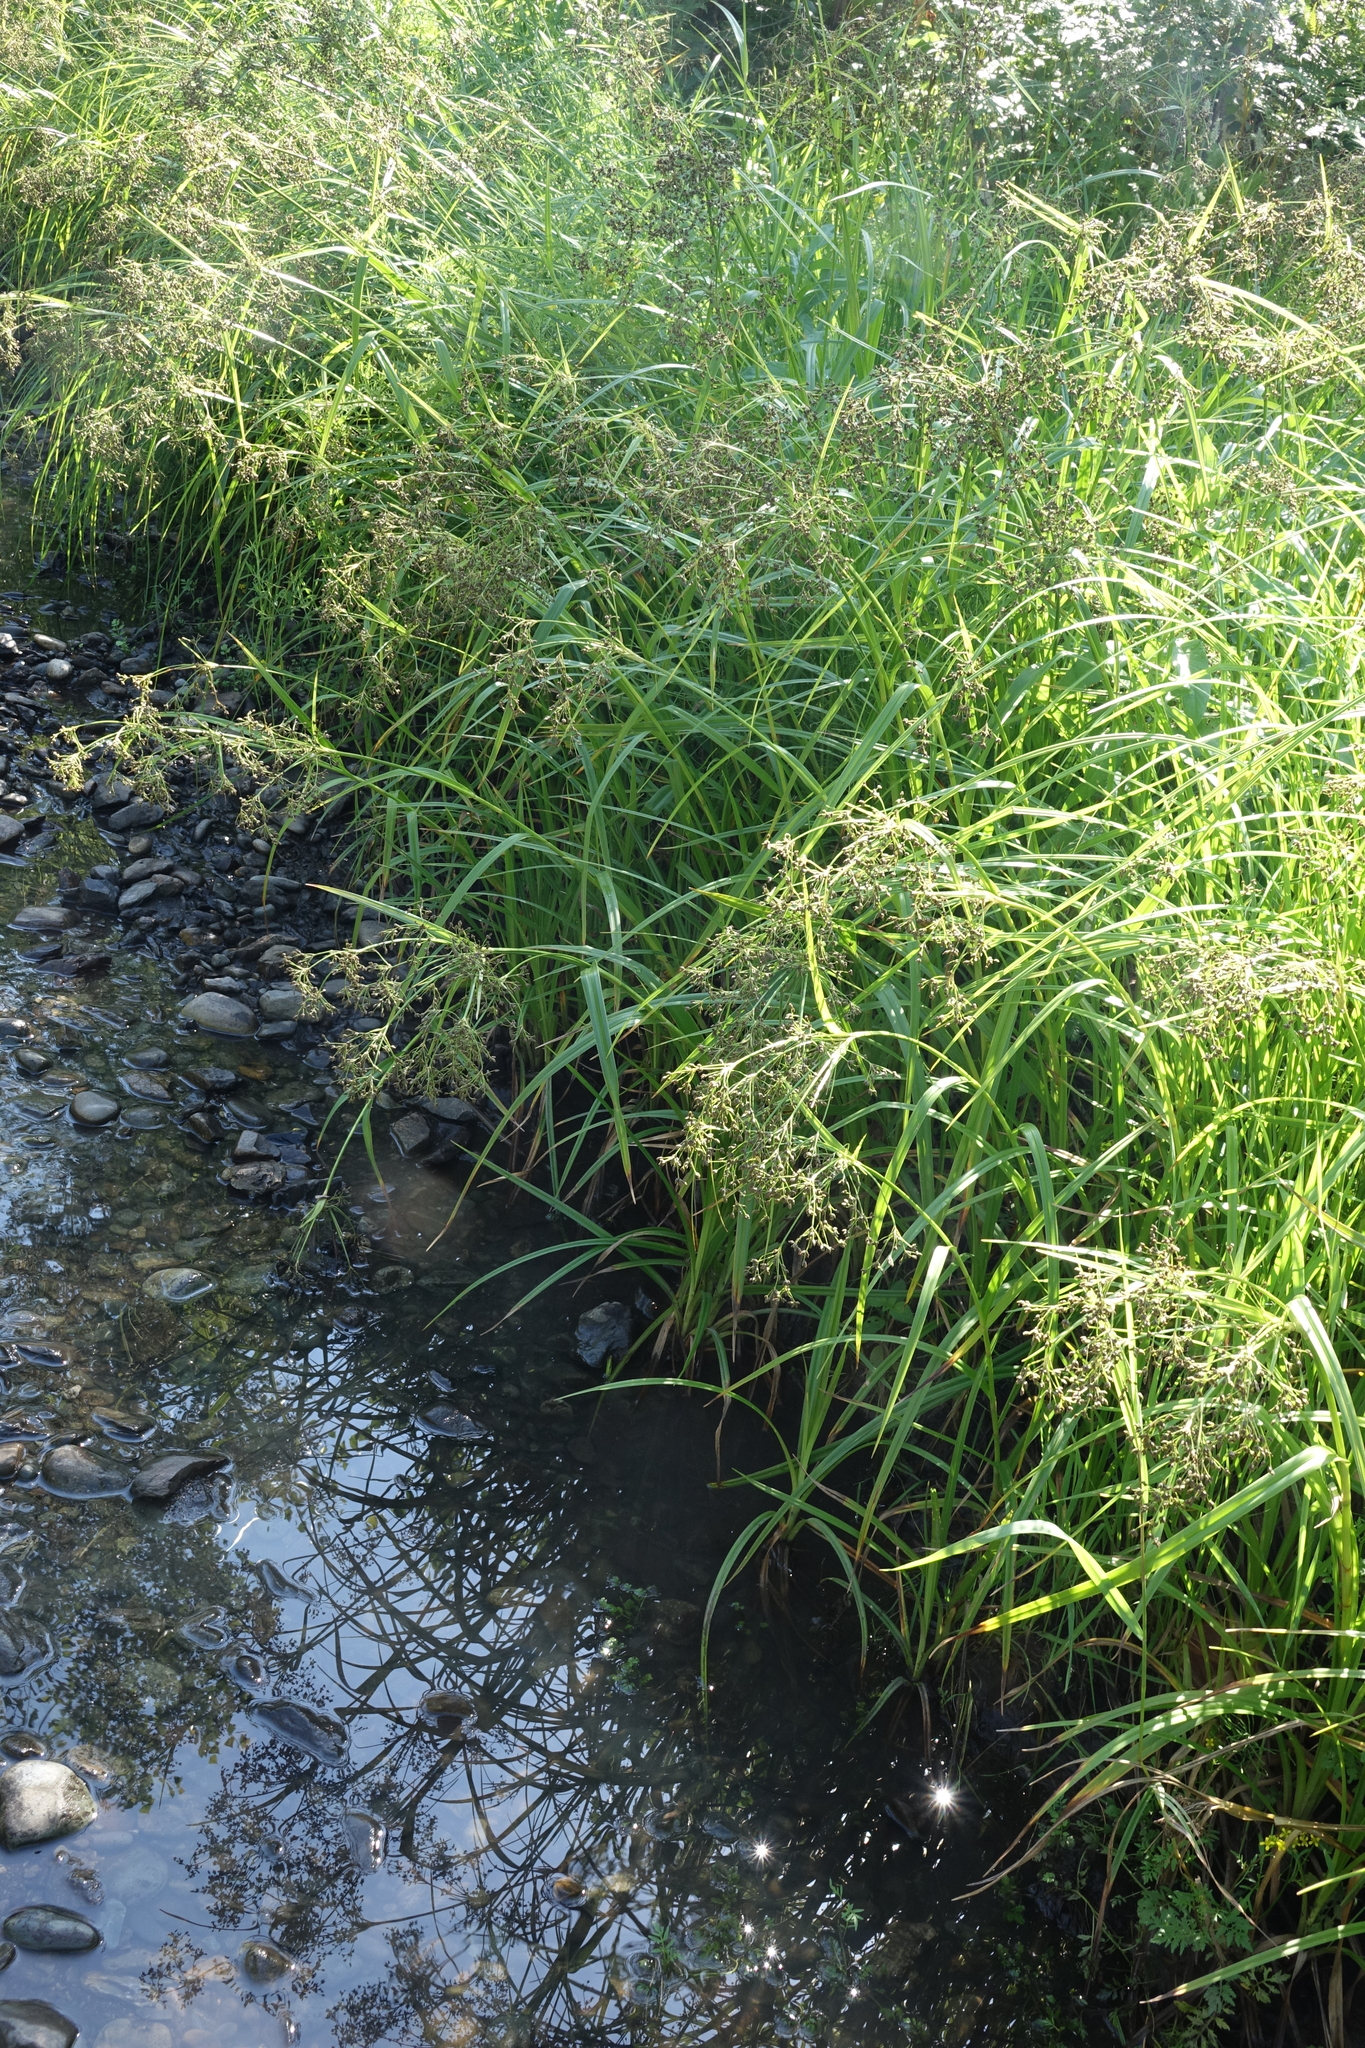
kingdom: Plantae
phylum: Tracheophyta
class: Liliopsida
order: Poales
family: Cyperaceae
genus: Scirpus
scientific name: Scirpus sylvaticus
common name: Wood club-rush
